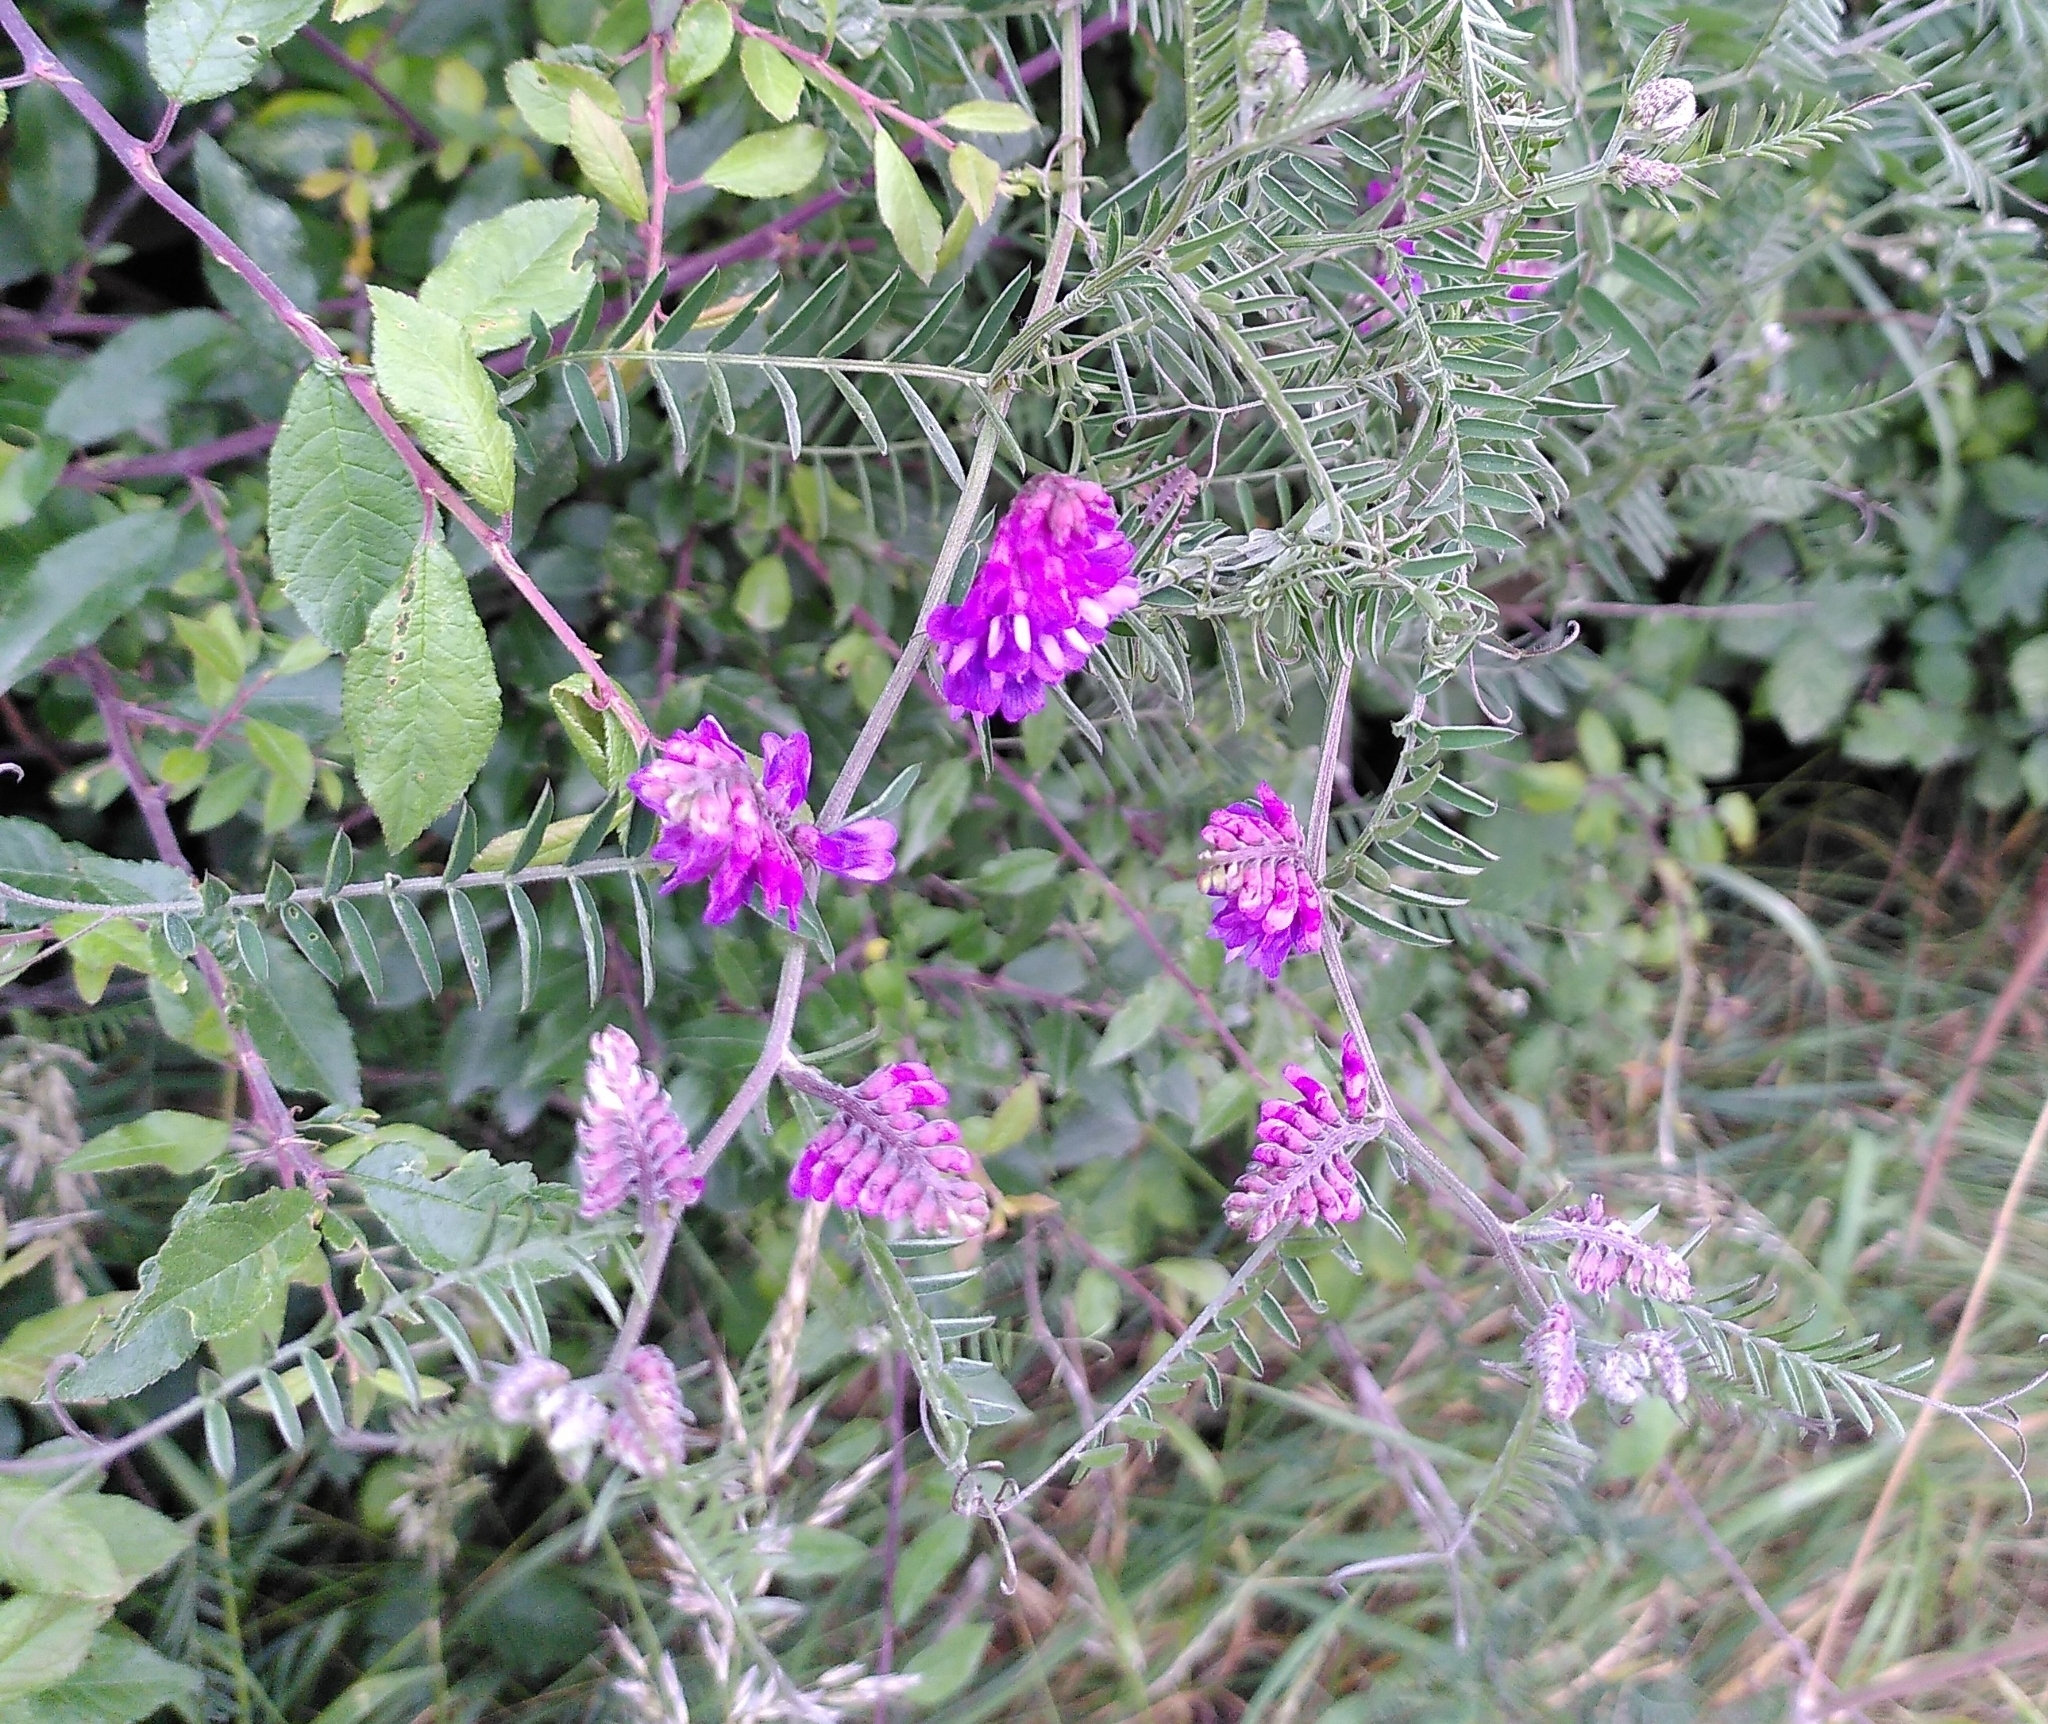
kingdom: Plantae
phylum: Tracheophyta
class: Magnoliopsida
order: Fabales
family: Fabaceae
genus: Vicia
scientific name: Vicia cracca
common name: Bird vetch
